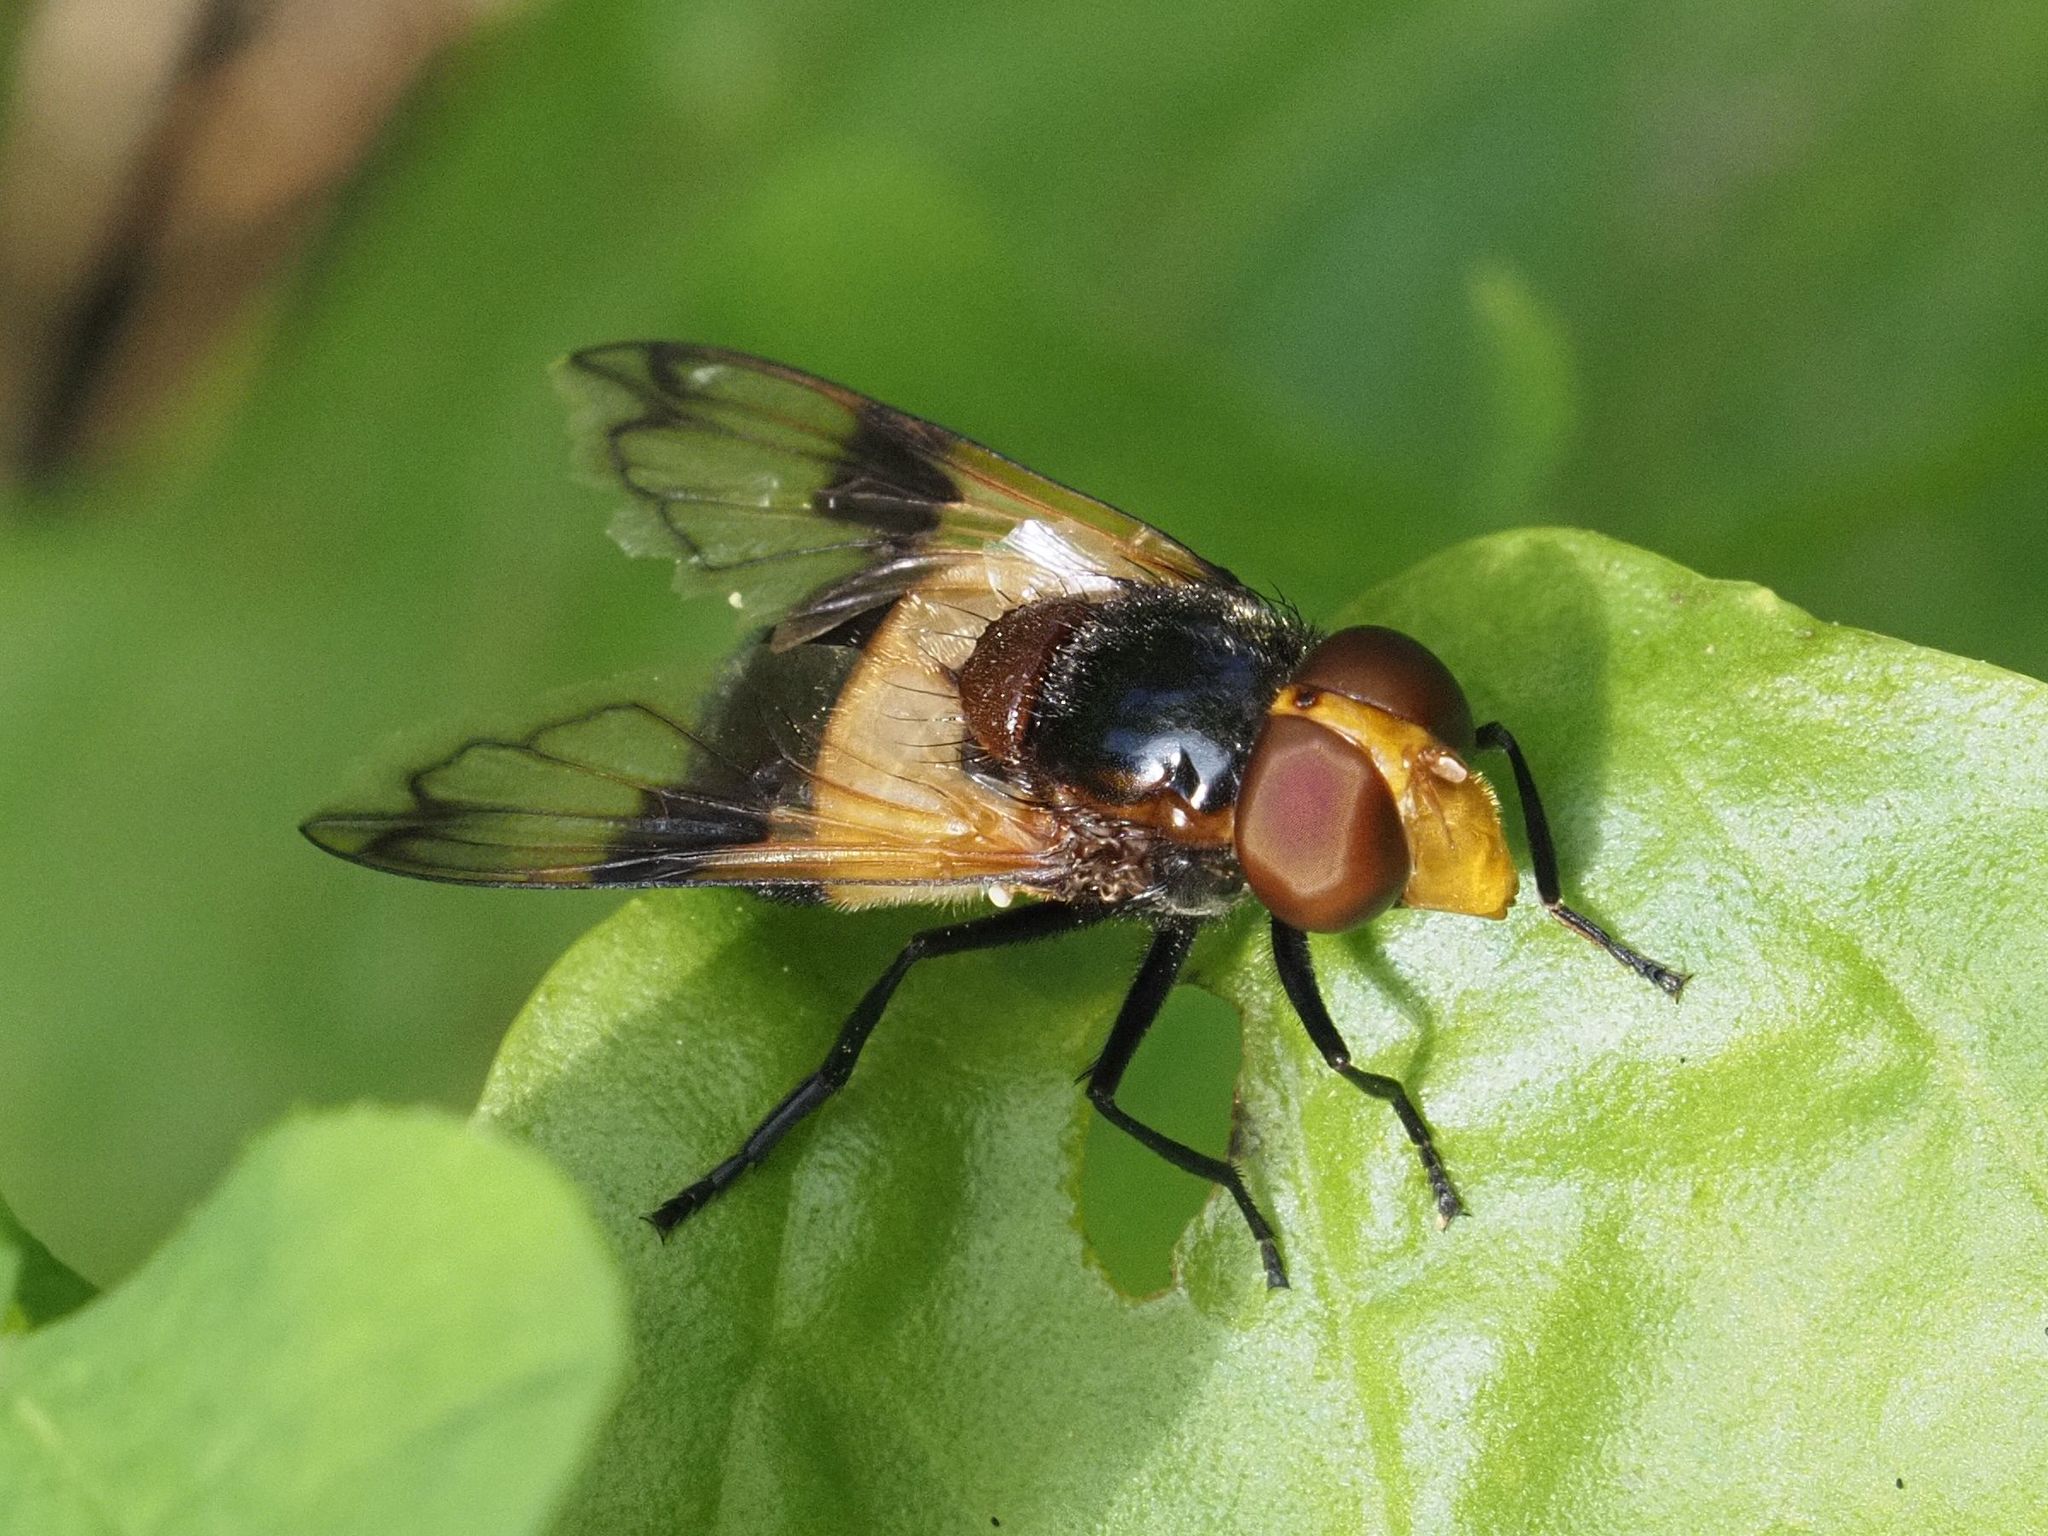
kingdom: Animalia
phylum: Arthropoda
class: Insecta
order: Diptera
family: Syrphidae
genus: Volucella
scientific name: Volucella pellucens
